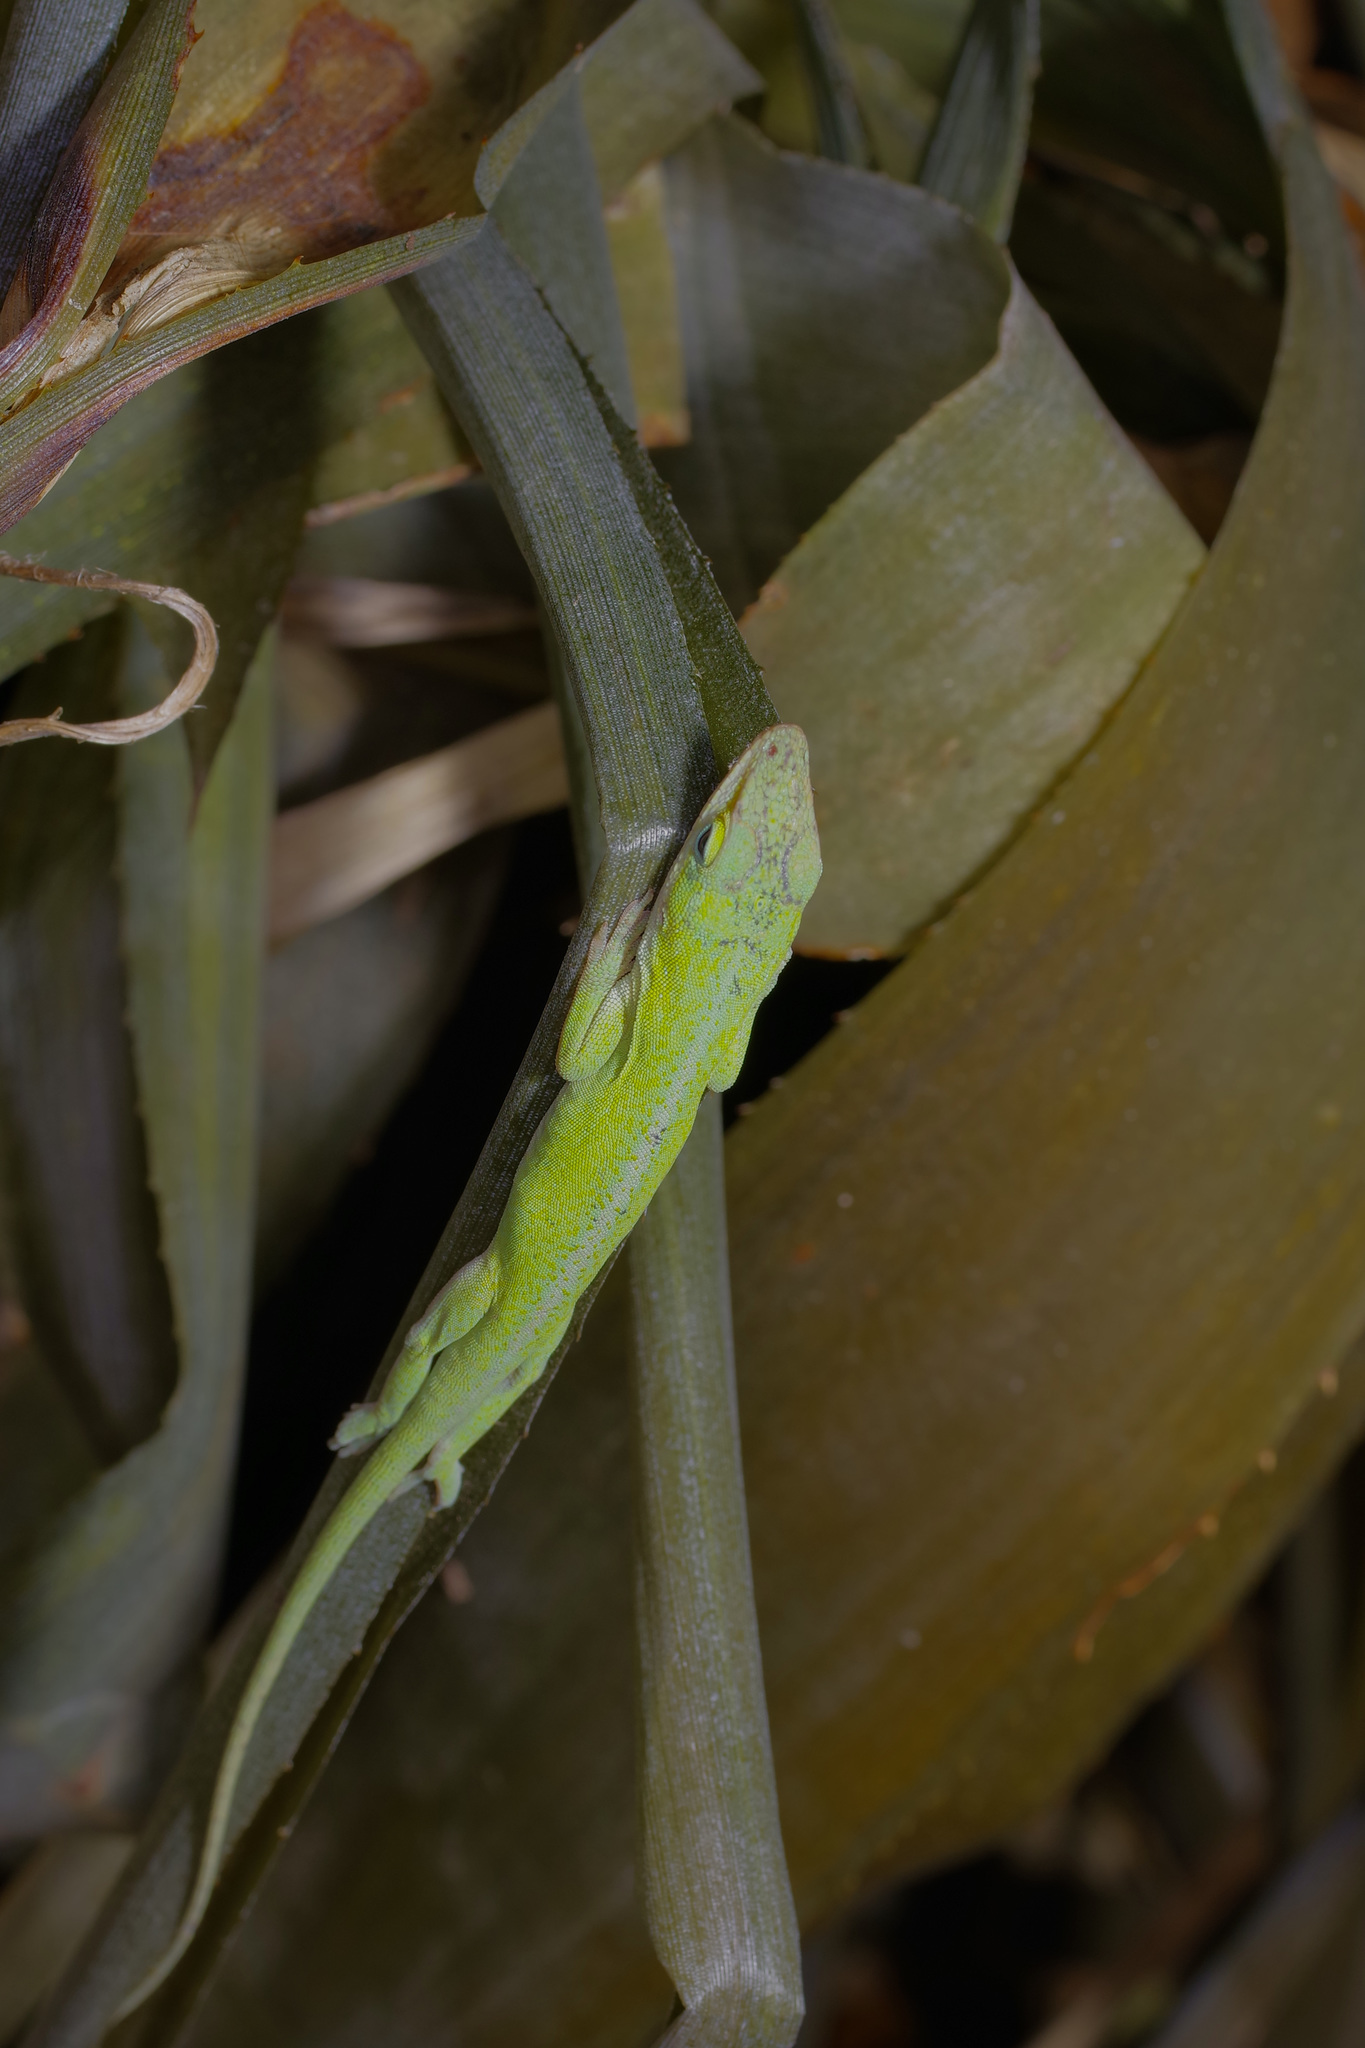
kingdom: Animalia
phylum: Chordata
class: Squamata
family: Dactyloidae
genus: Anolis
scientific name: Anolis carolinensis
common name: Green anole
